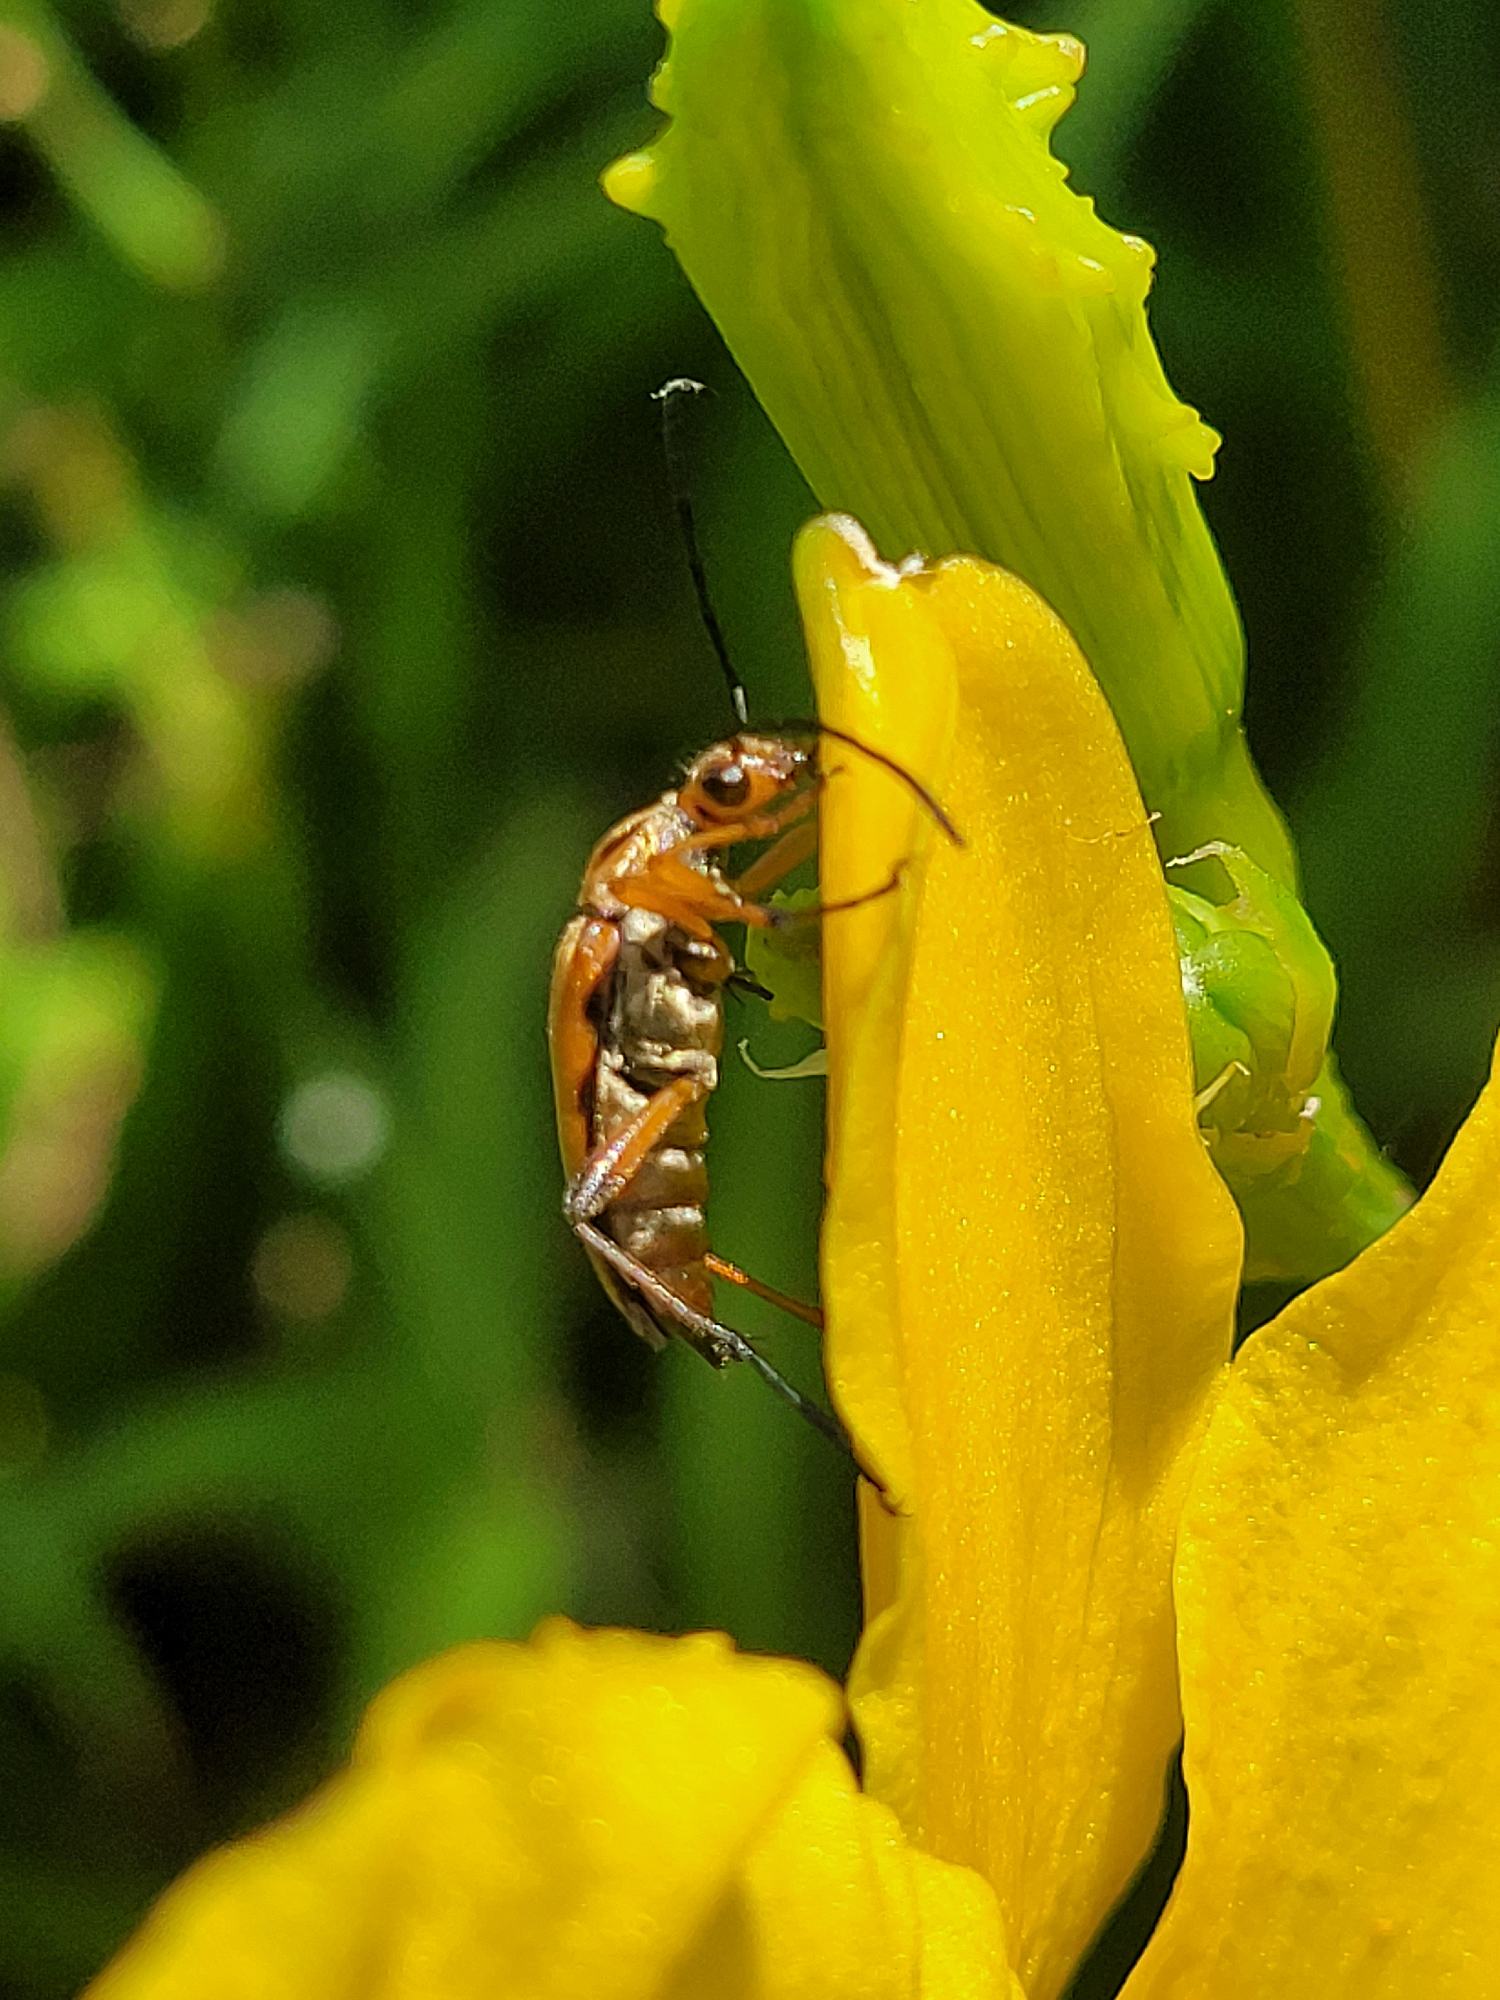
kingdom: Animalia
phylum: Arthropoda
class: Insecta
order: Coleoptera
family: Cerambycidae
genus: Strangalia
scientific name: Strangalia famelica
